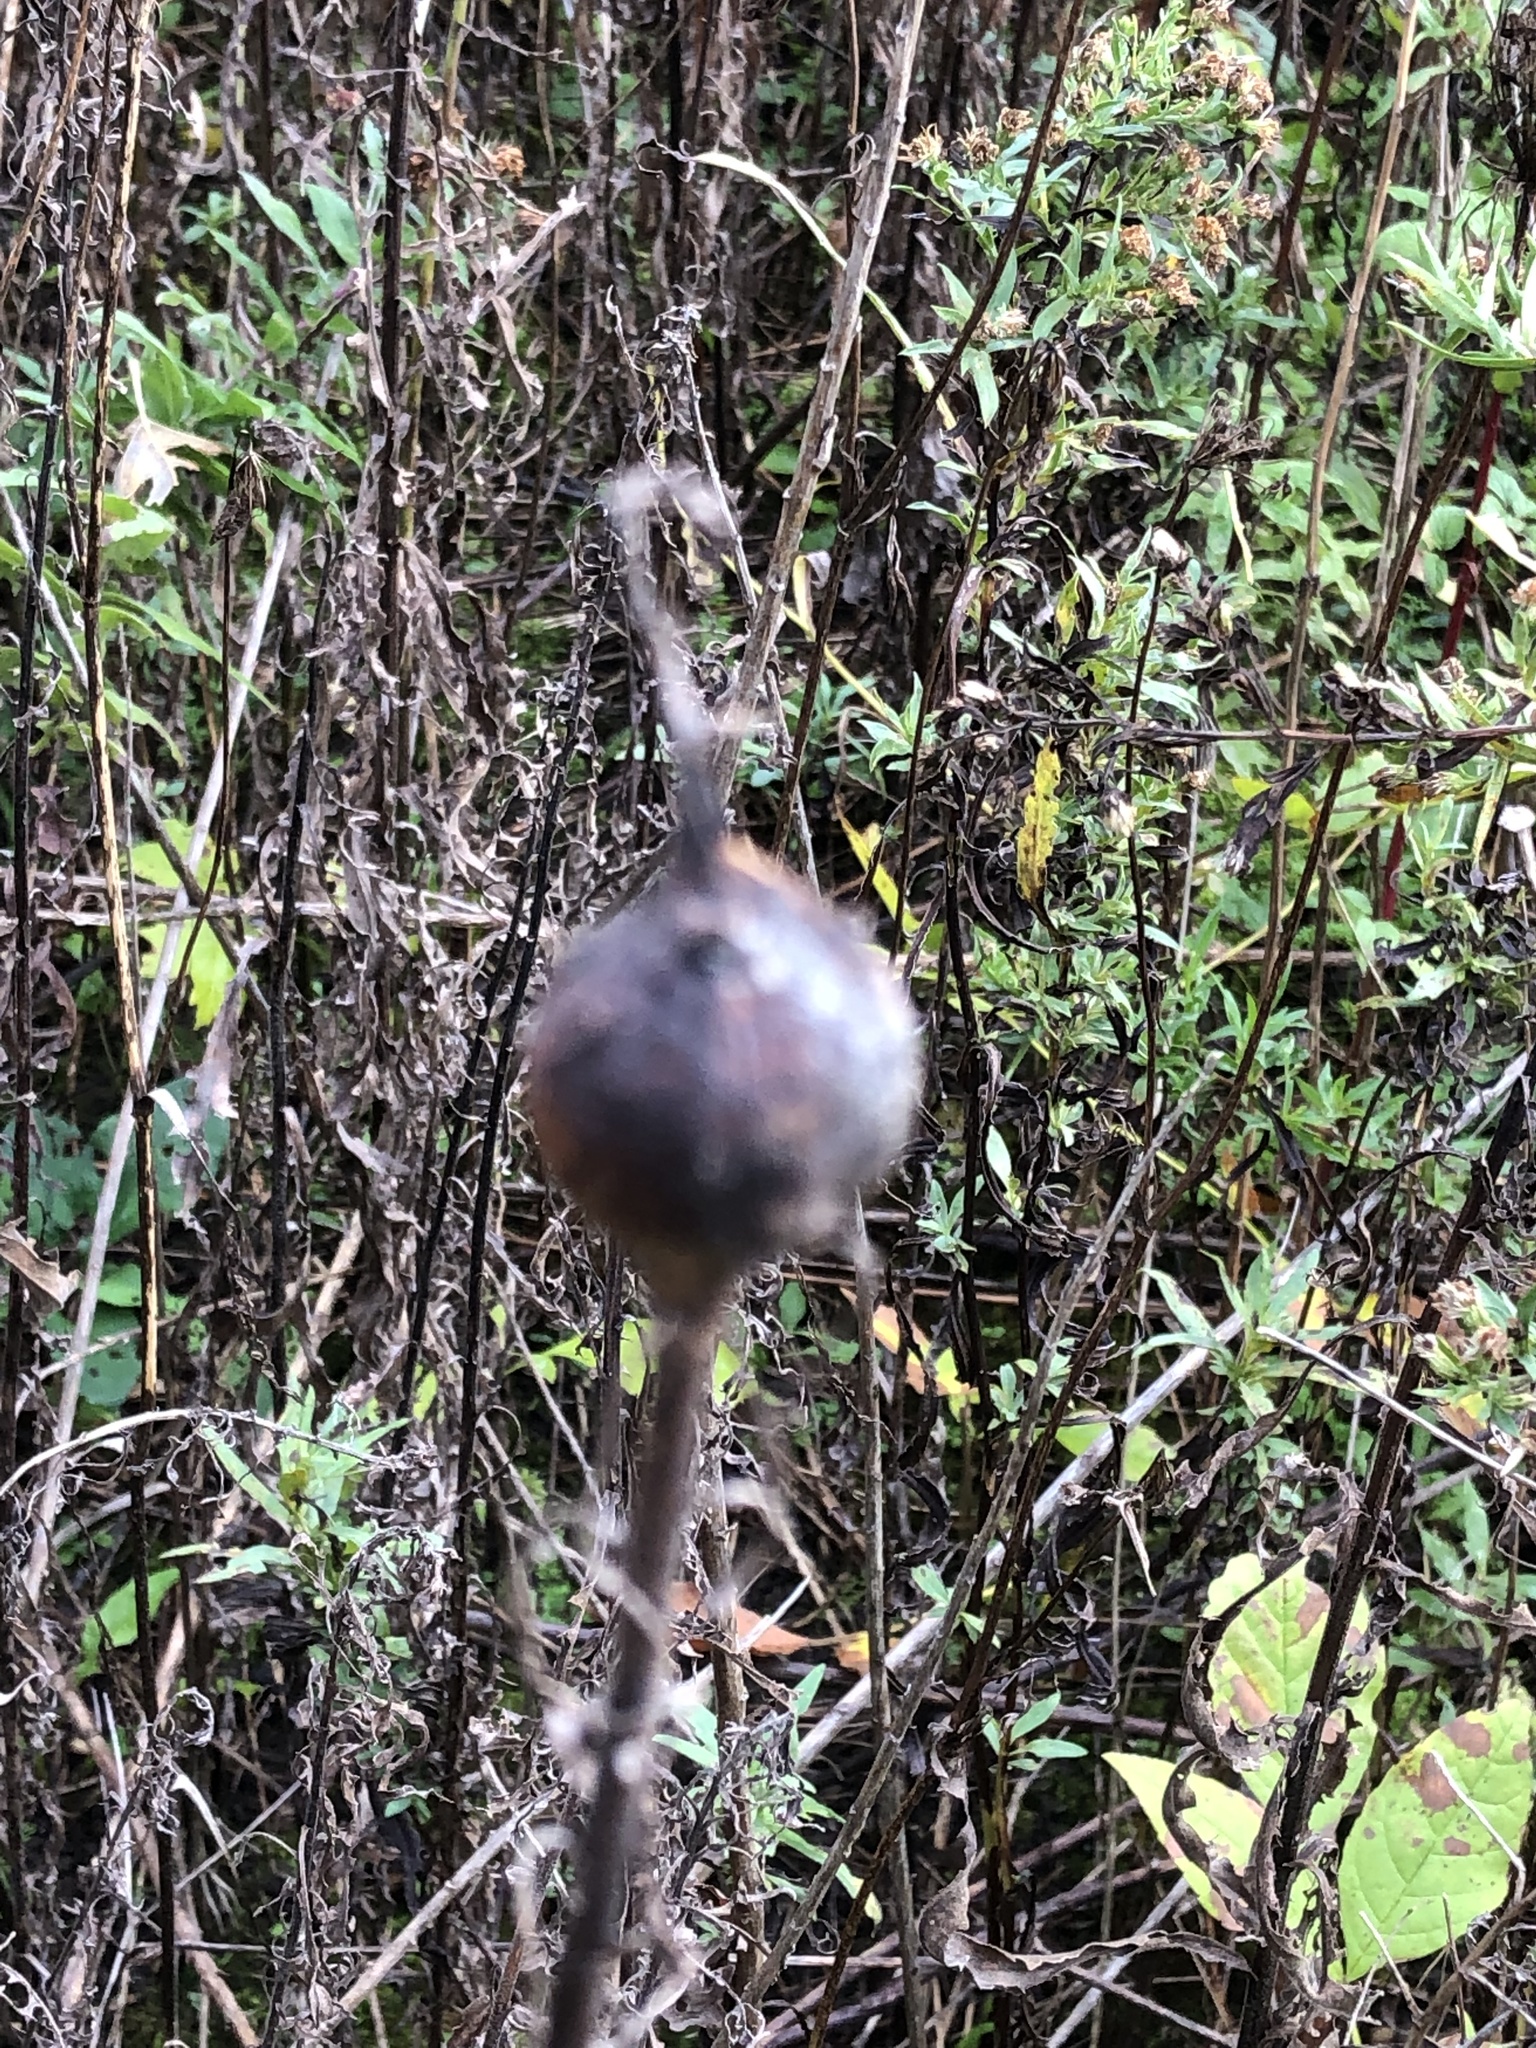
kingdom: Animalia
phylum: Arthropoda
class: Insecta
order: Diptera
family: Tephritidae
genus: Eurosta
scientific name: Eurosta solidaginis
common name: Goldenrod gall fly
